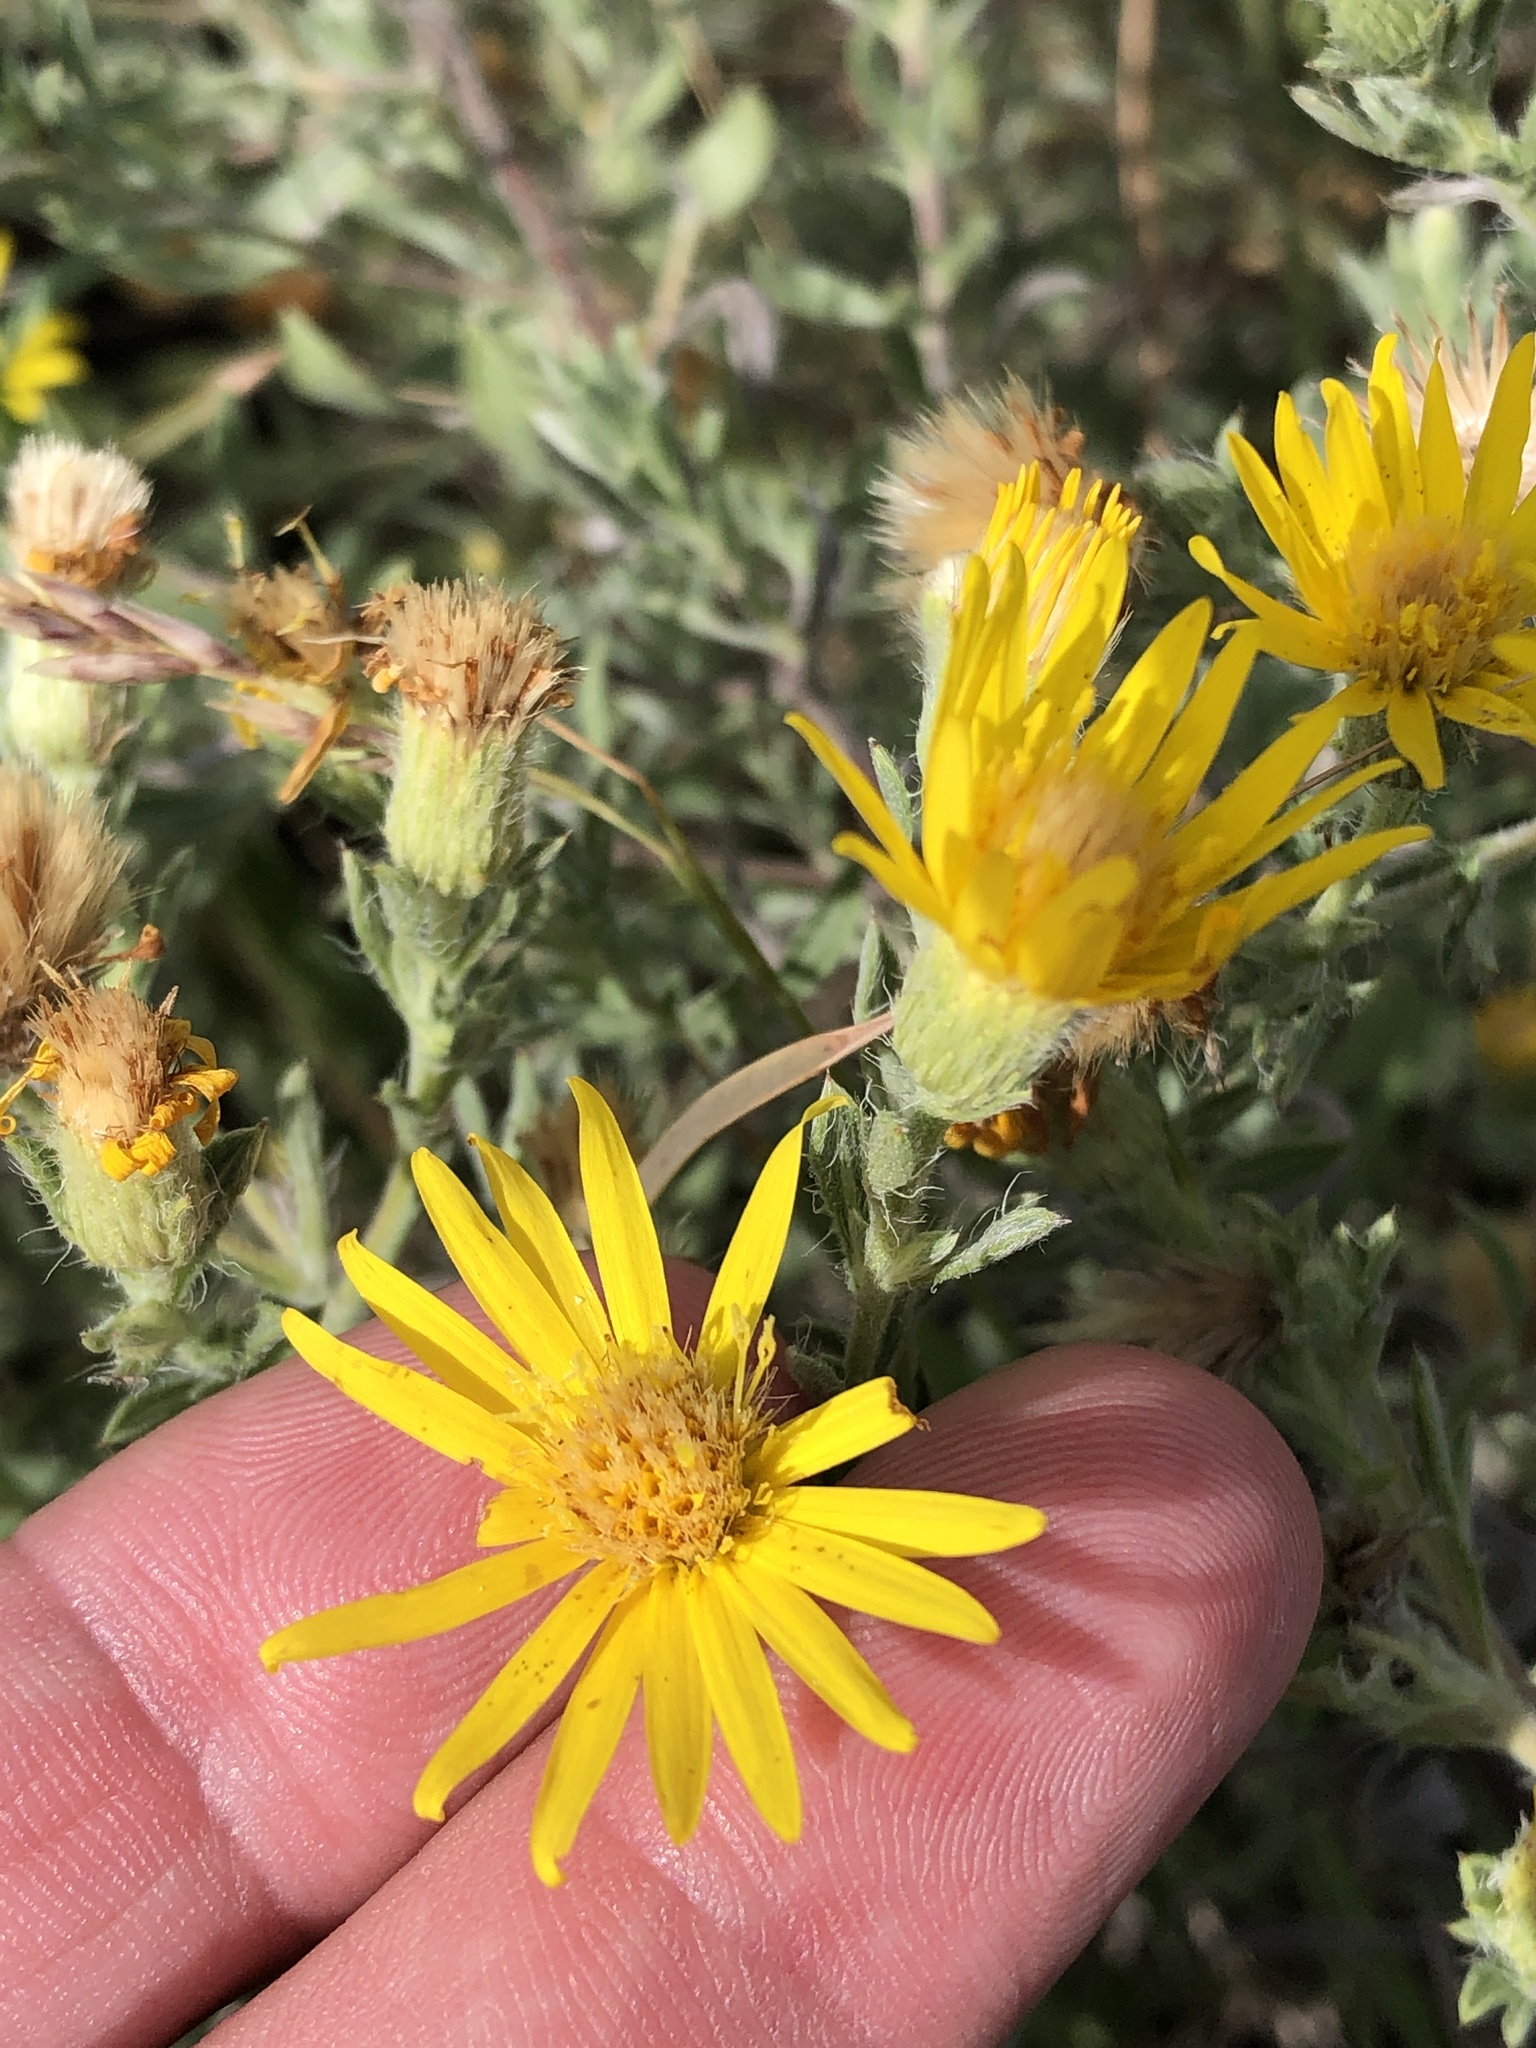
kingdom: Plantae
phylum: Tracheophyta
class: Magnoliopsida
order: Asterales
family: Asteraceae
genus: Heterotheca
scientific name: Heterotheca canescens
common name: Hoary golden-aster
